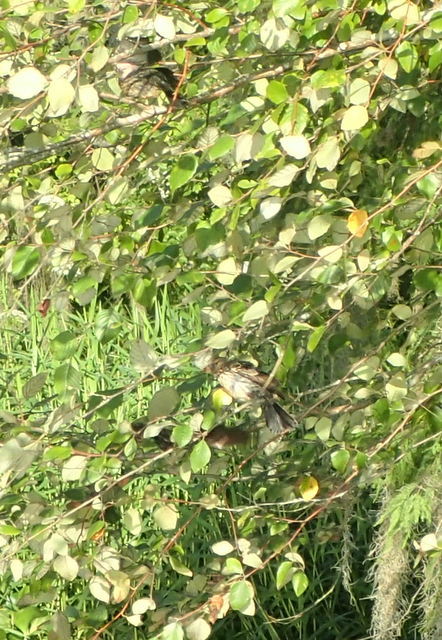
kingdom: Animalia
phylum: Chordata
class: Aves
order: Passeriformes
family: Mimidae
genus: Toxostoma
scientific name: Toxostoma rufum
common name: Brown thrasher
